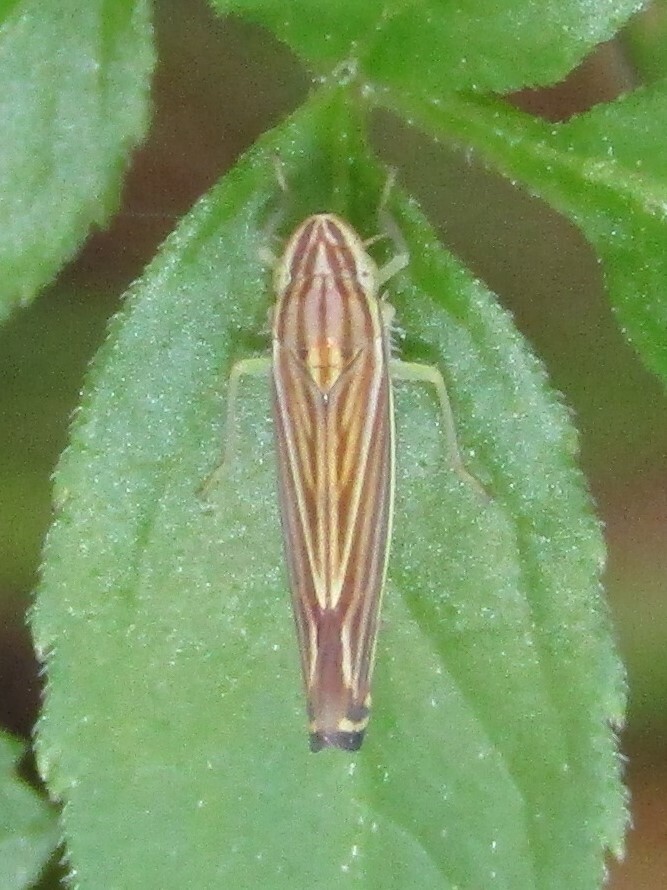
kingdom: Animalia
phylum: Arthropoda
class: Insecta
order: Hemiptera
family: Cicadellidae
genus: Sibovia
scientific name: Sibovia occatoria
